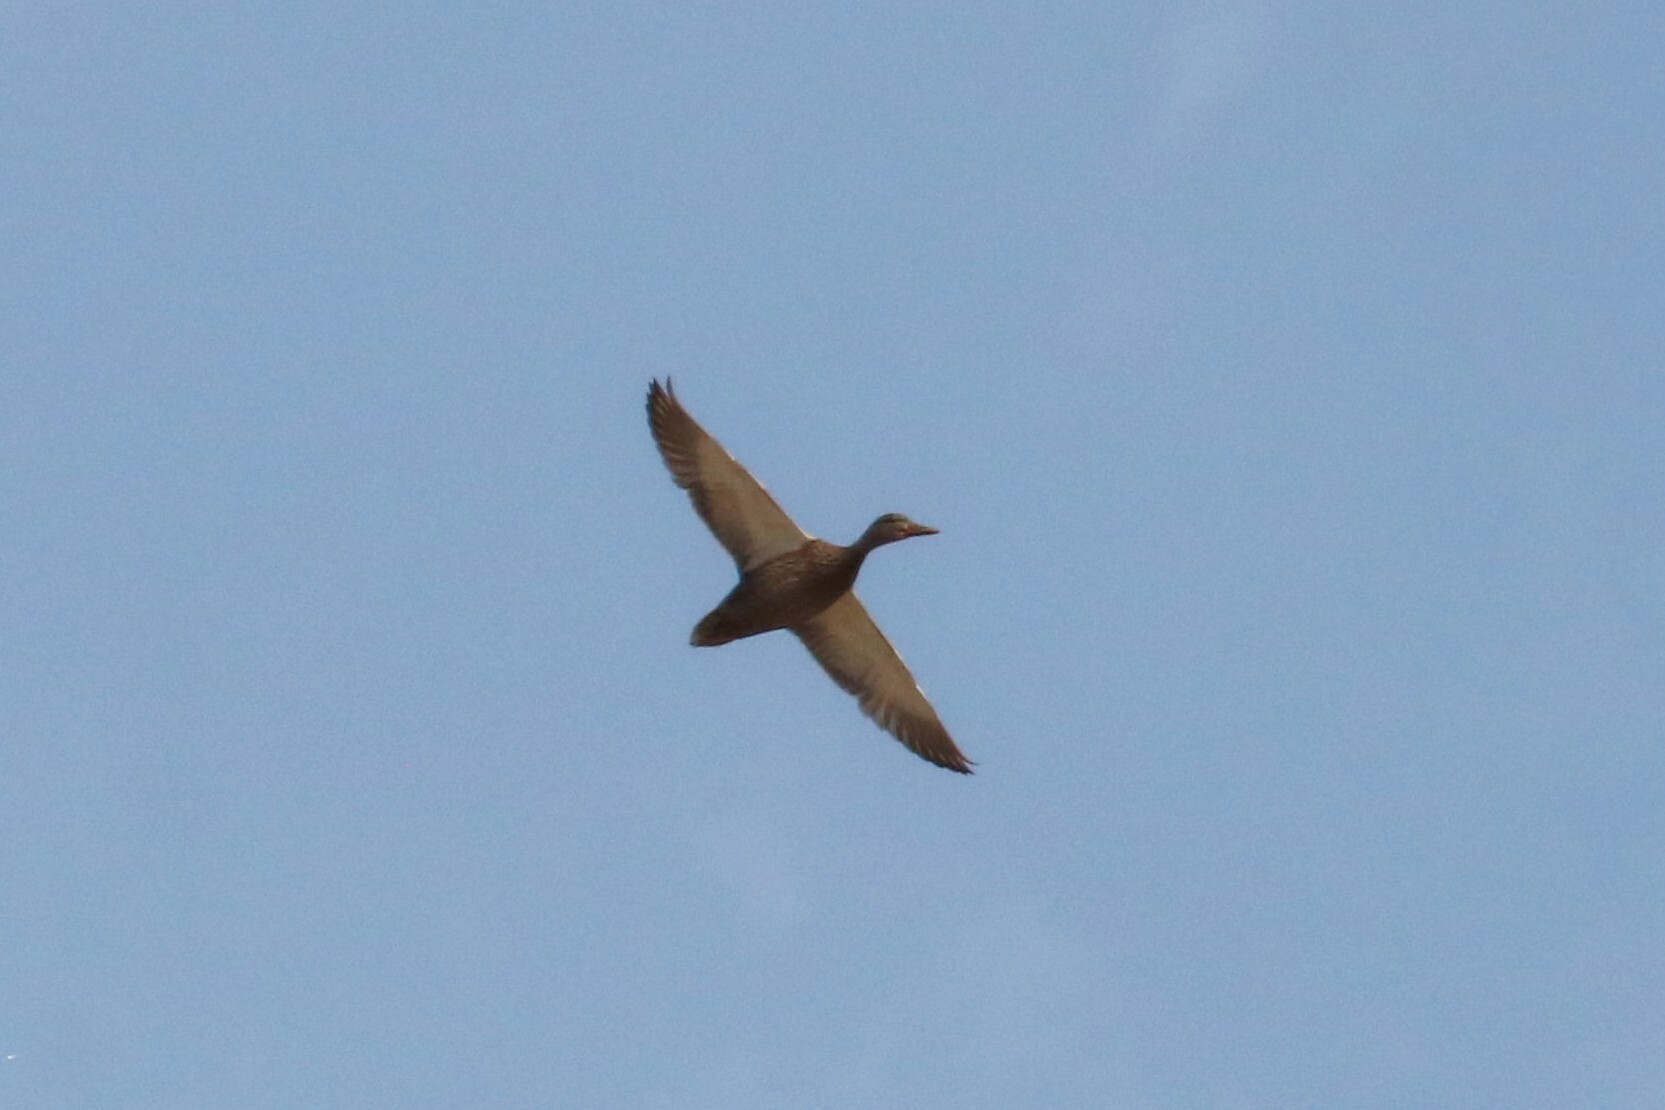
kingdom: Animalia
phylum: Chordata
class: Aves
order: Anseriformes
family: Anatidae
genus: Anas
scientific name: Anas platyrhynchos
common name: Mallard
